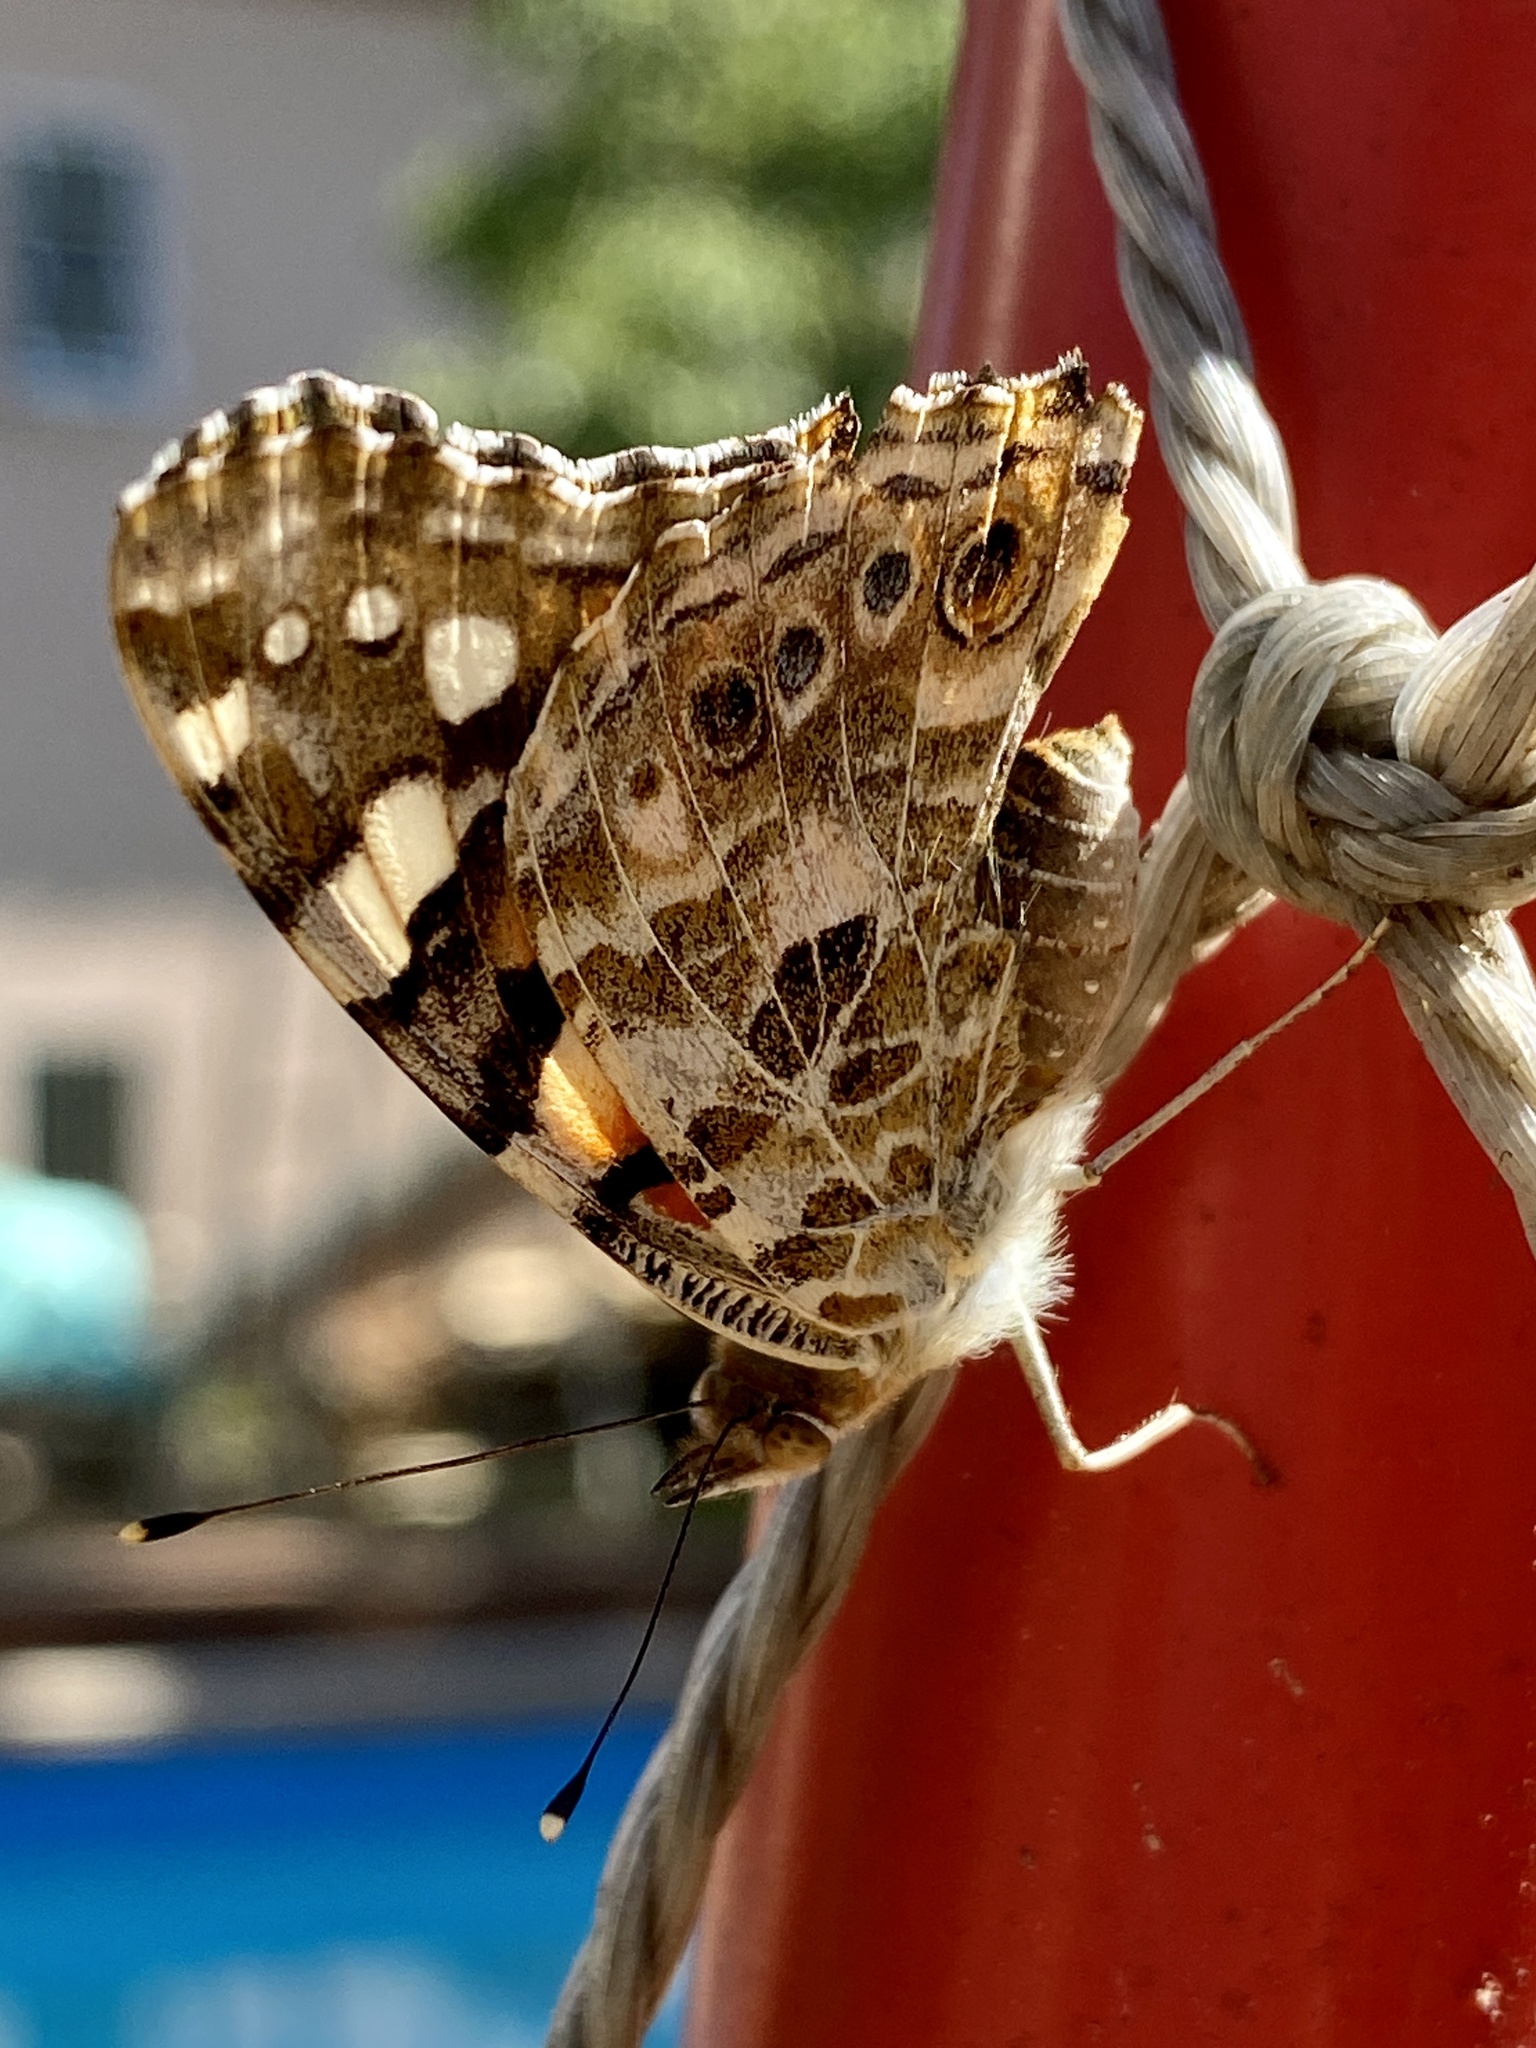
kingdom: Animalia
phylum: Arthropoda
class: Insecta
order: Lepidoptera
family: Nymphalidae
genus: Vanessa
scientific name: Vanessa cardui
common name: Painted lady
